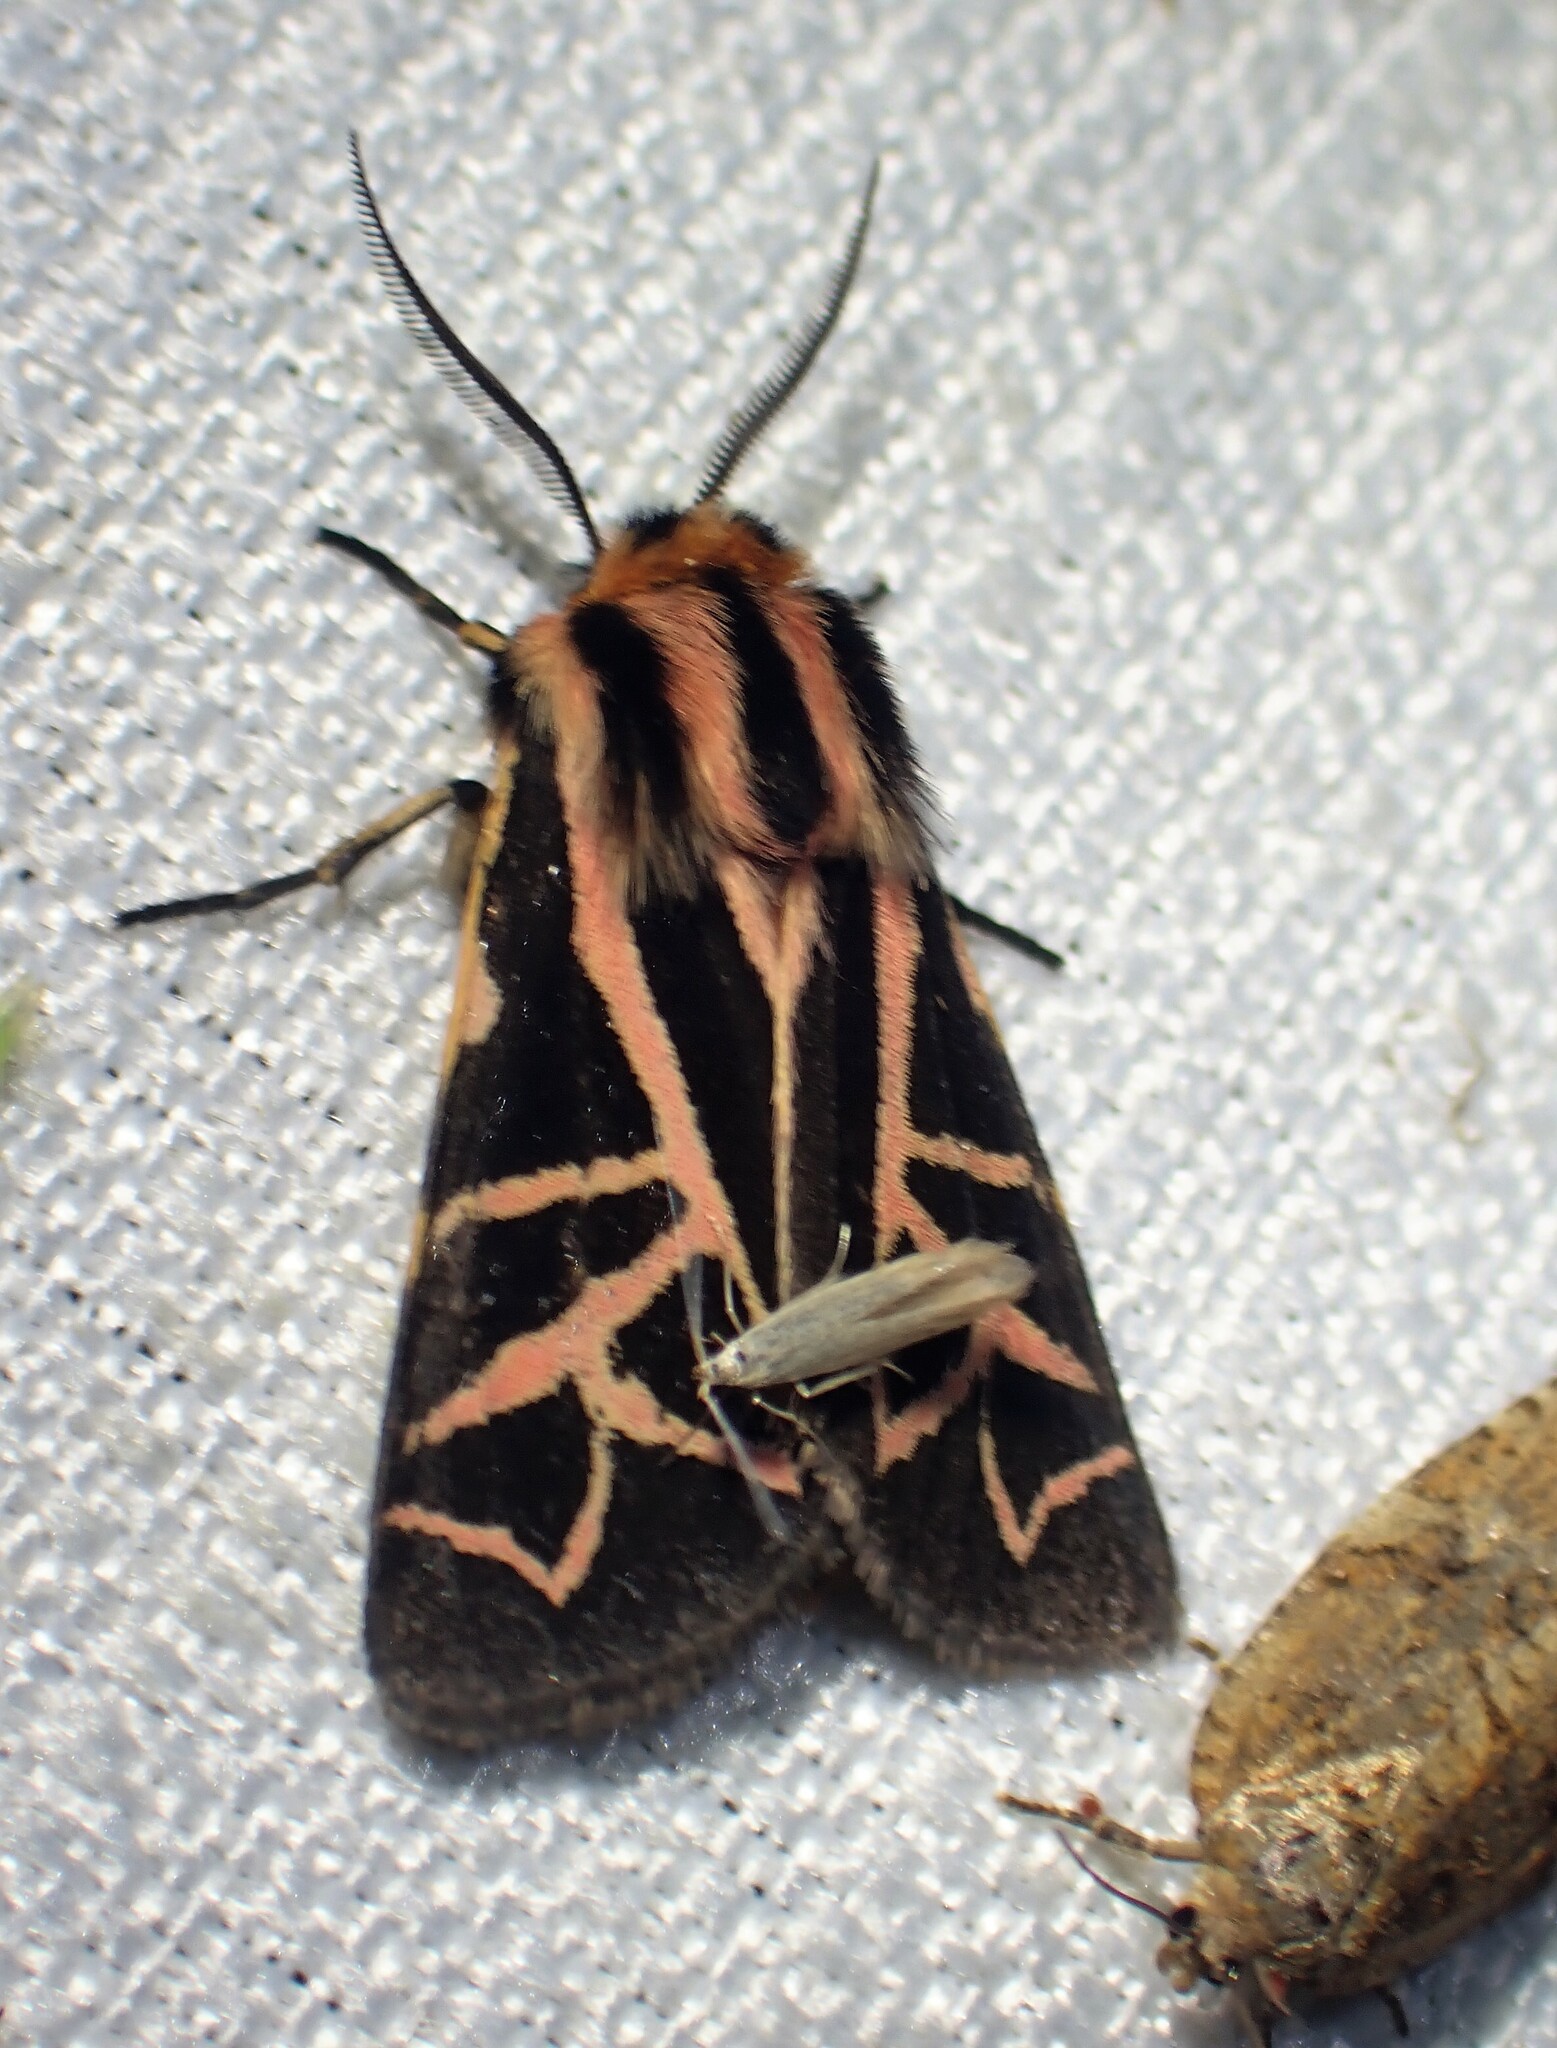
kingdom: Animalia
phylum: Arthropoda
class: Insecta
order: Lepidoptera
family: Erebidae
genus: Apantesis
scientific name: Apantesis
